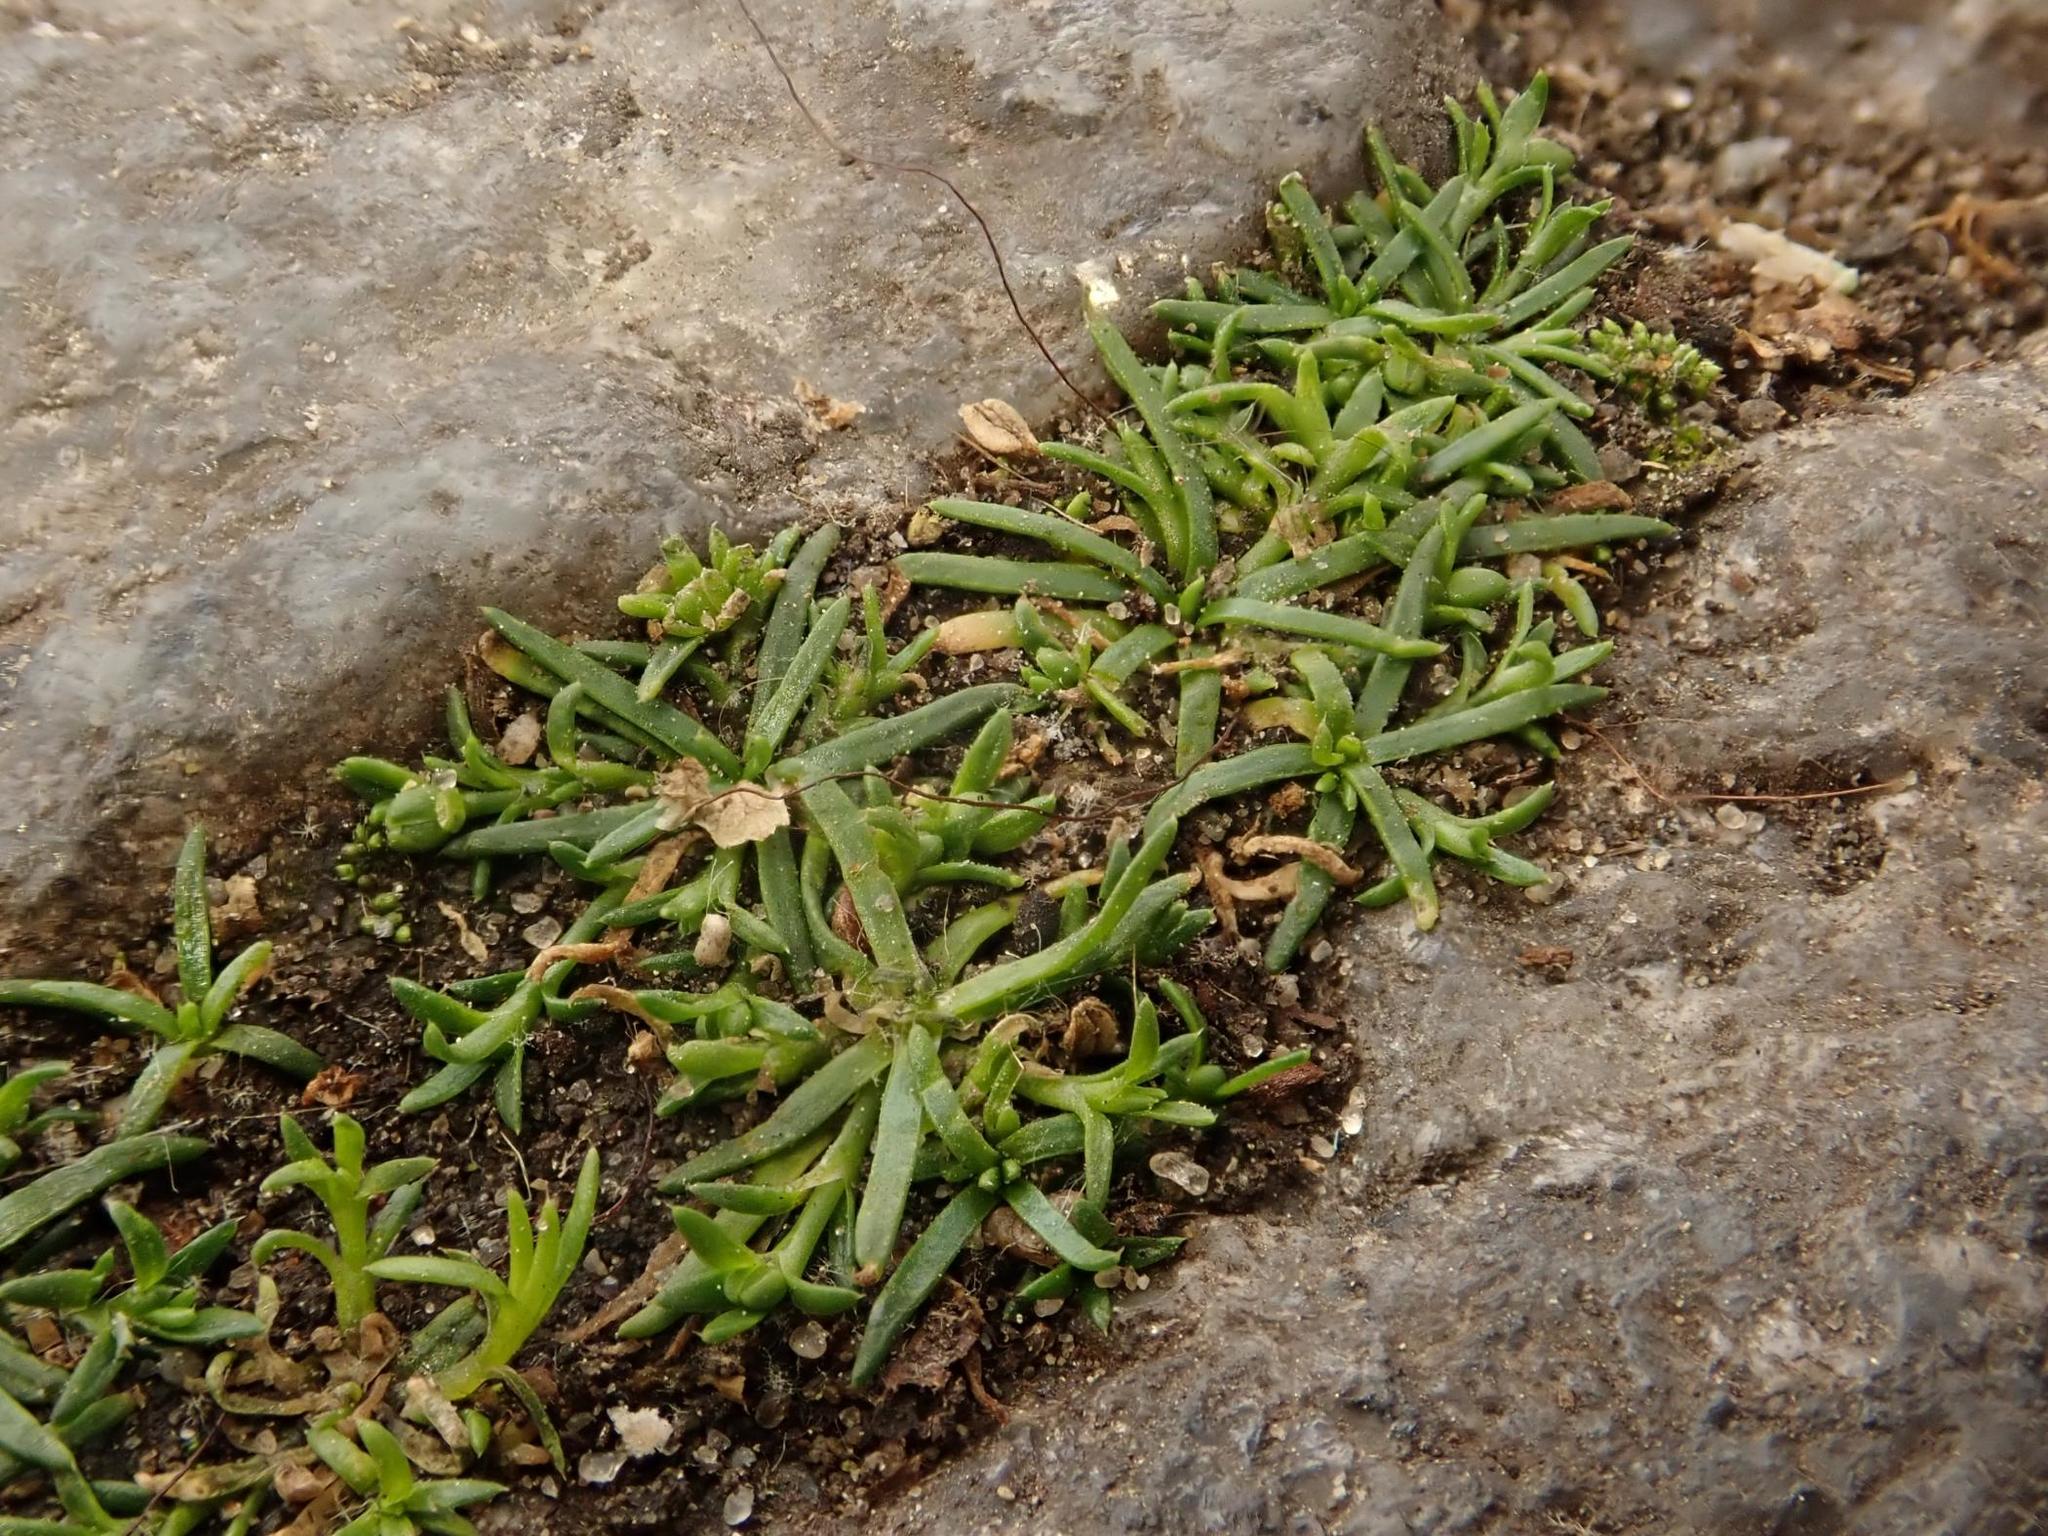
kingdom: Plantae
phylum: Tracheophyta
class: Magnoliopsida
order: Caryophyllales
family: Caryophyllaceae
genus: Sagina
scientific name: Sagina procumbens
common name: Procumbent pearlwort
